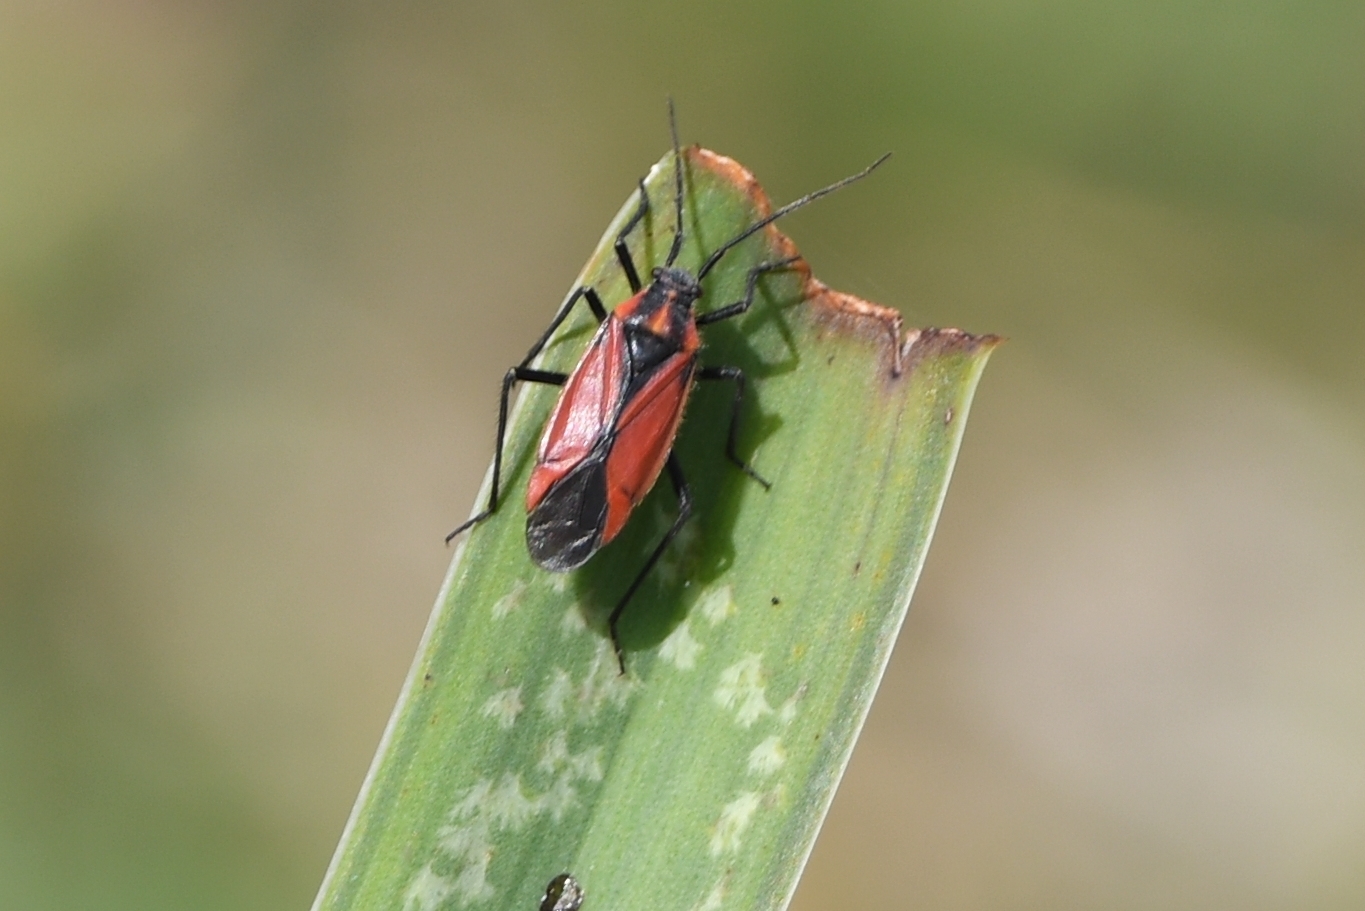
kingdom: Animalia
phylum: Arthropoda
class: Insecta
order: Hemiptera
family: Miridae
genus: Horistus
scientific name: Horistus infuscatus
